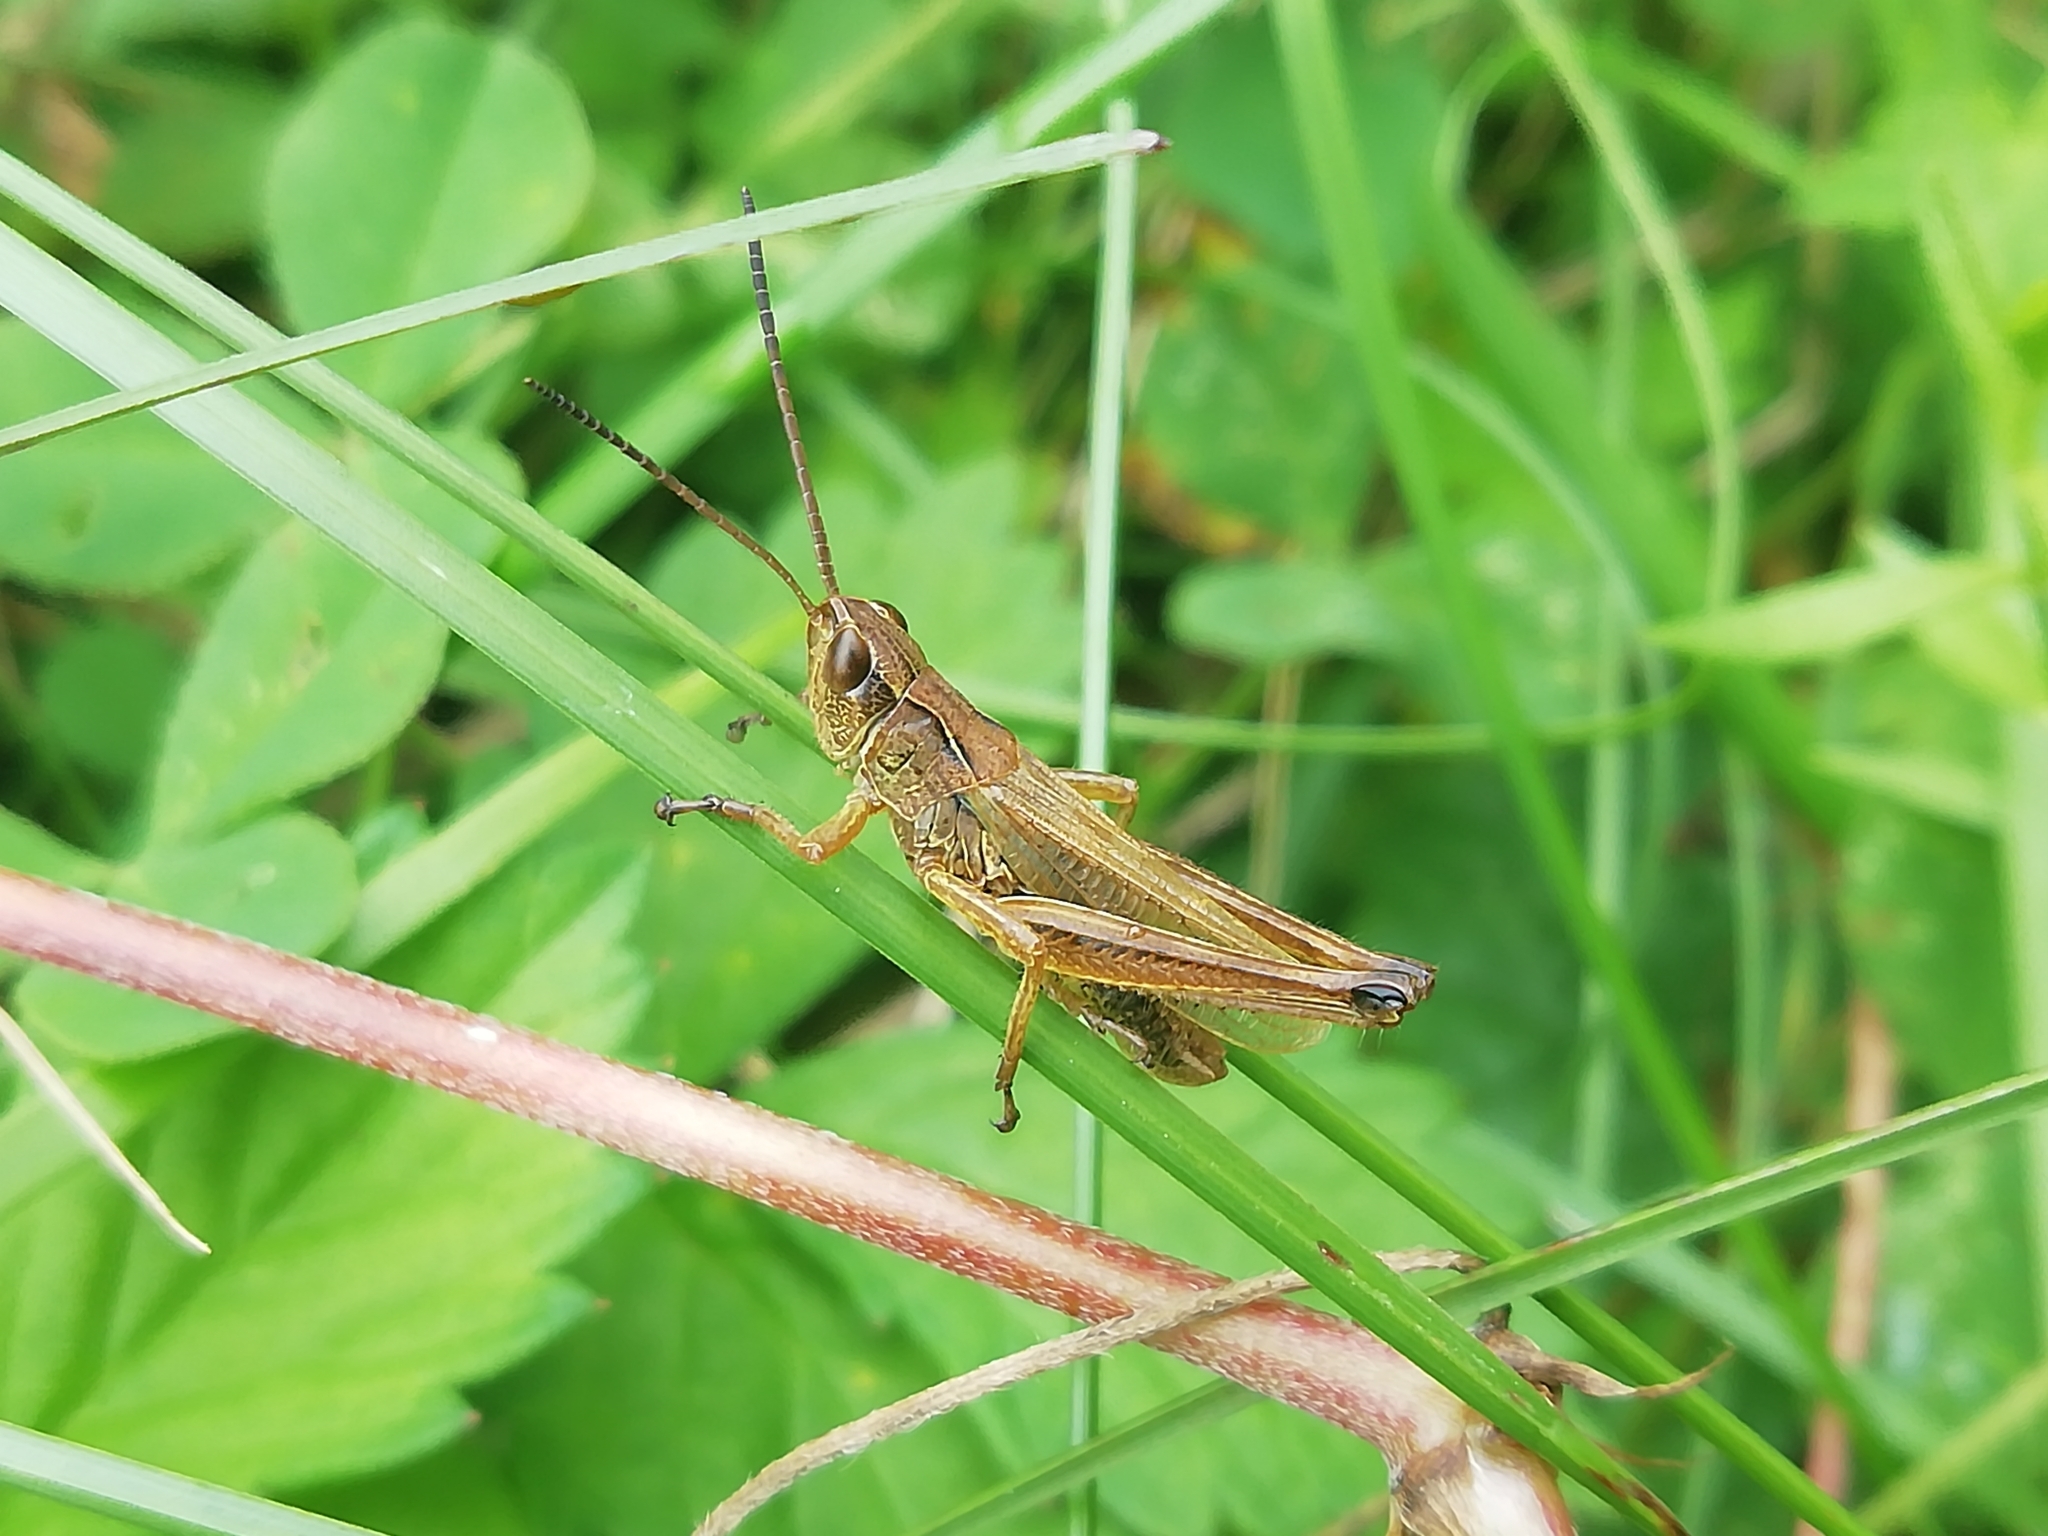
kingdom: Animalia
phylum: Arthropoda
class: Insecta
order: Orthoptera
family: Acrididae
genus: Chorthippus
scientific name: Chorthippus fallax
